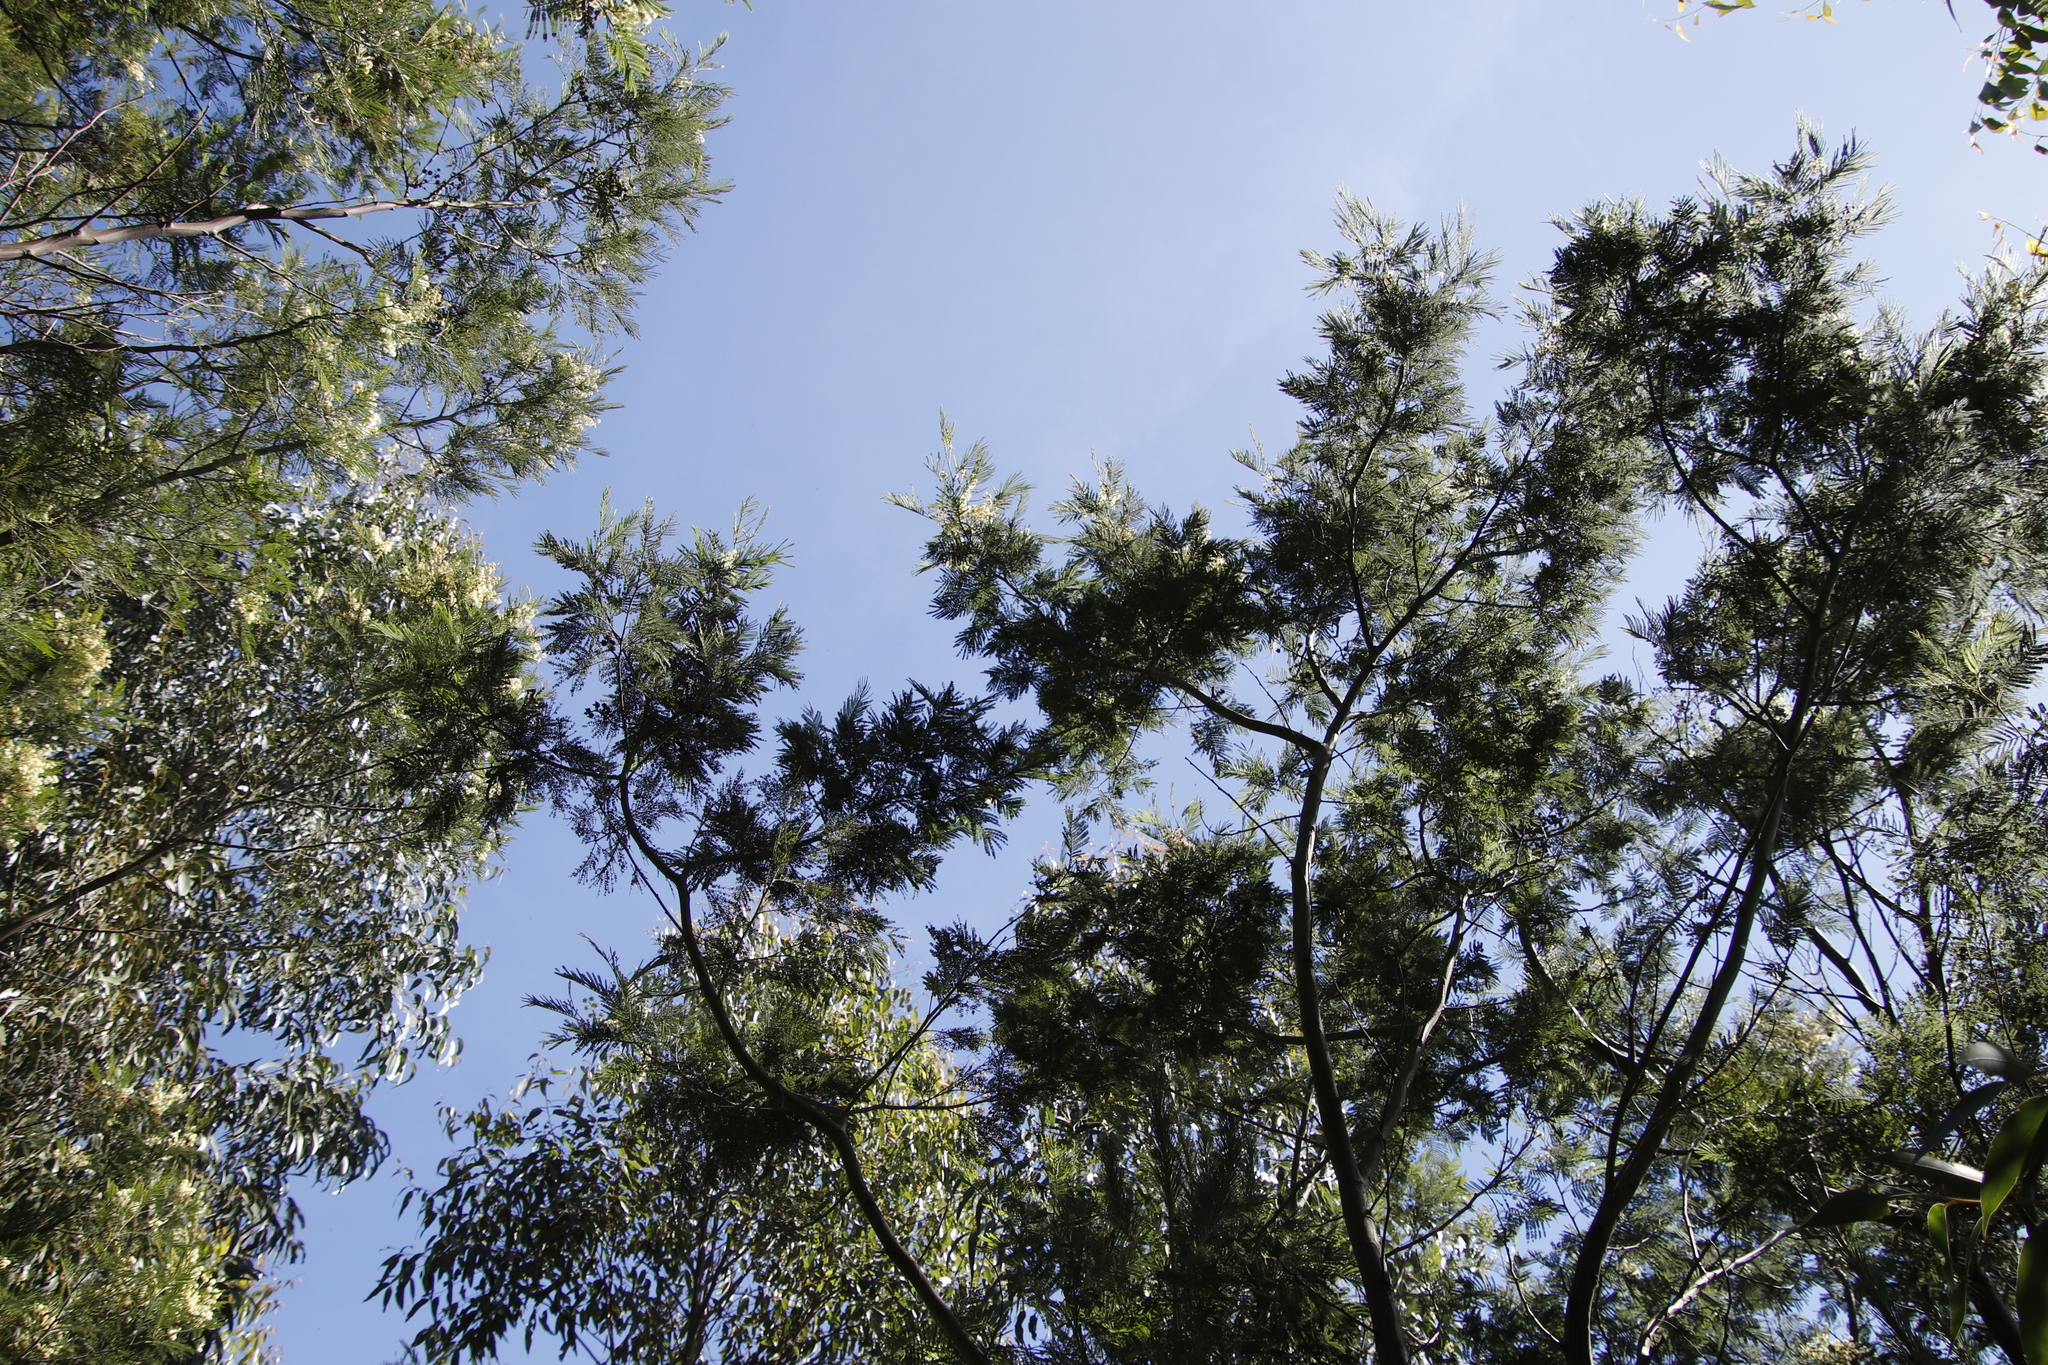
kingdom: Plantae
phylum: Tracheophyta
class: Magnoliopsida
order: Fabales
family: Fabaceae
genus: Acacia
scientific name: Acacia mearnsii
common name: Black wattle
